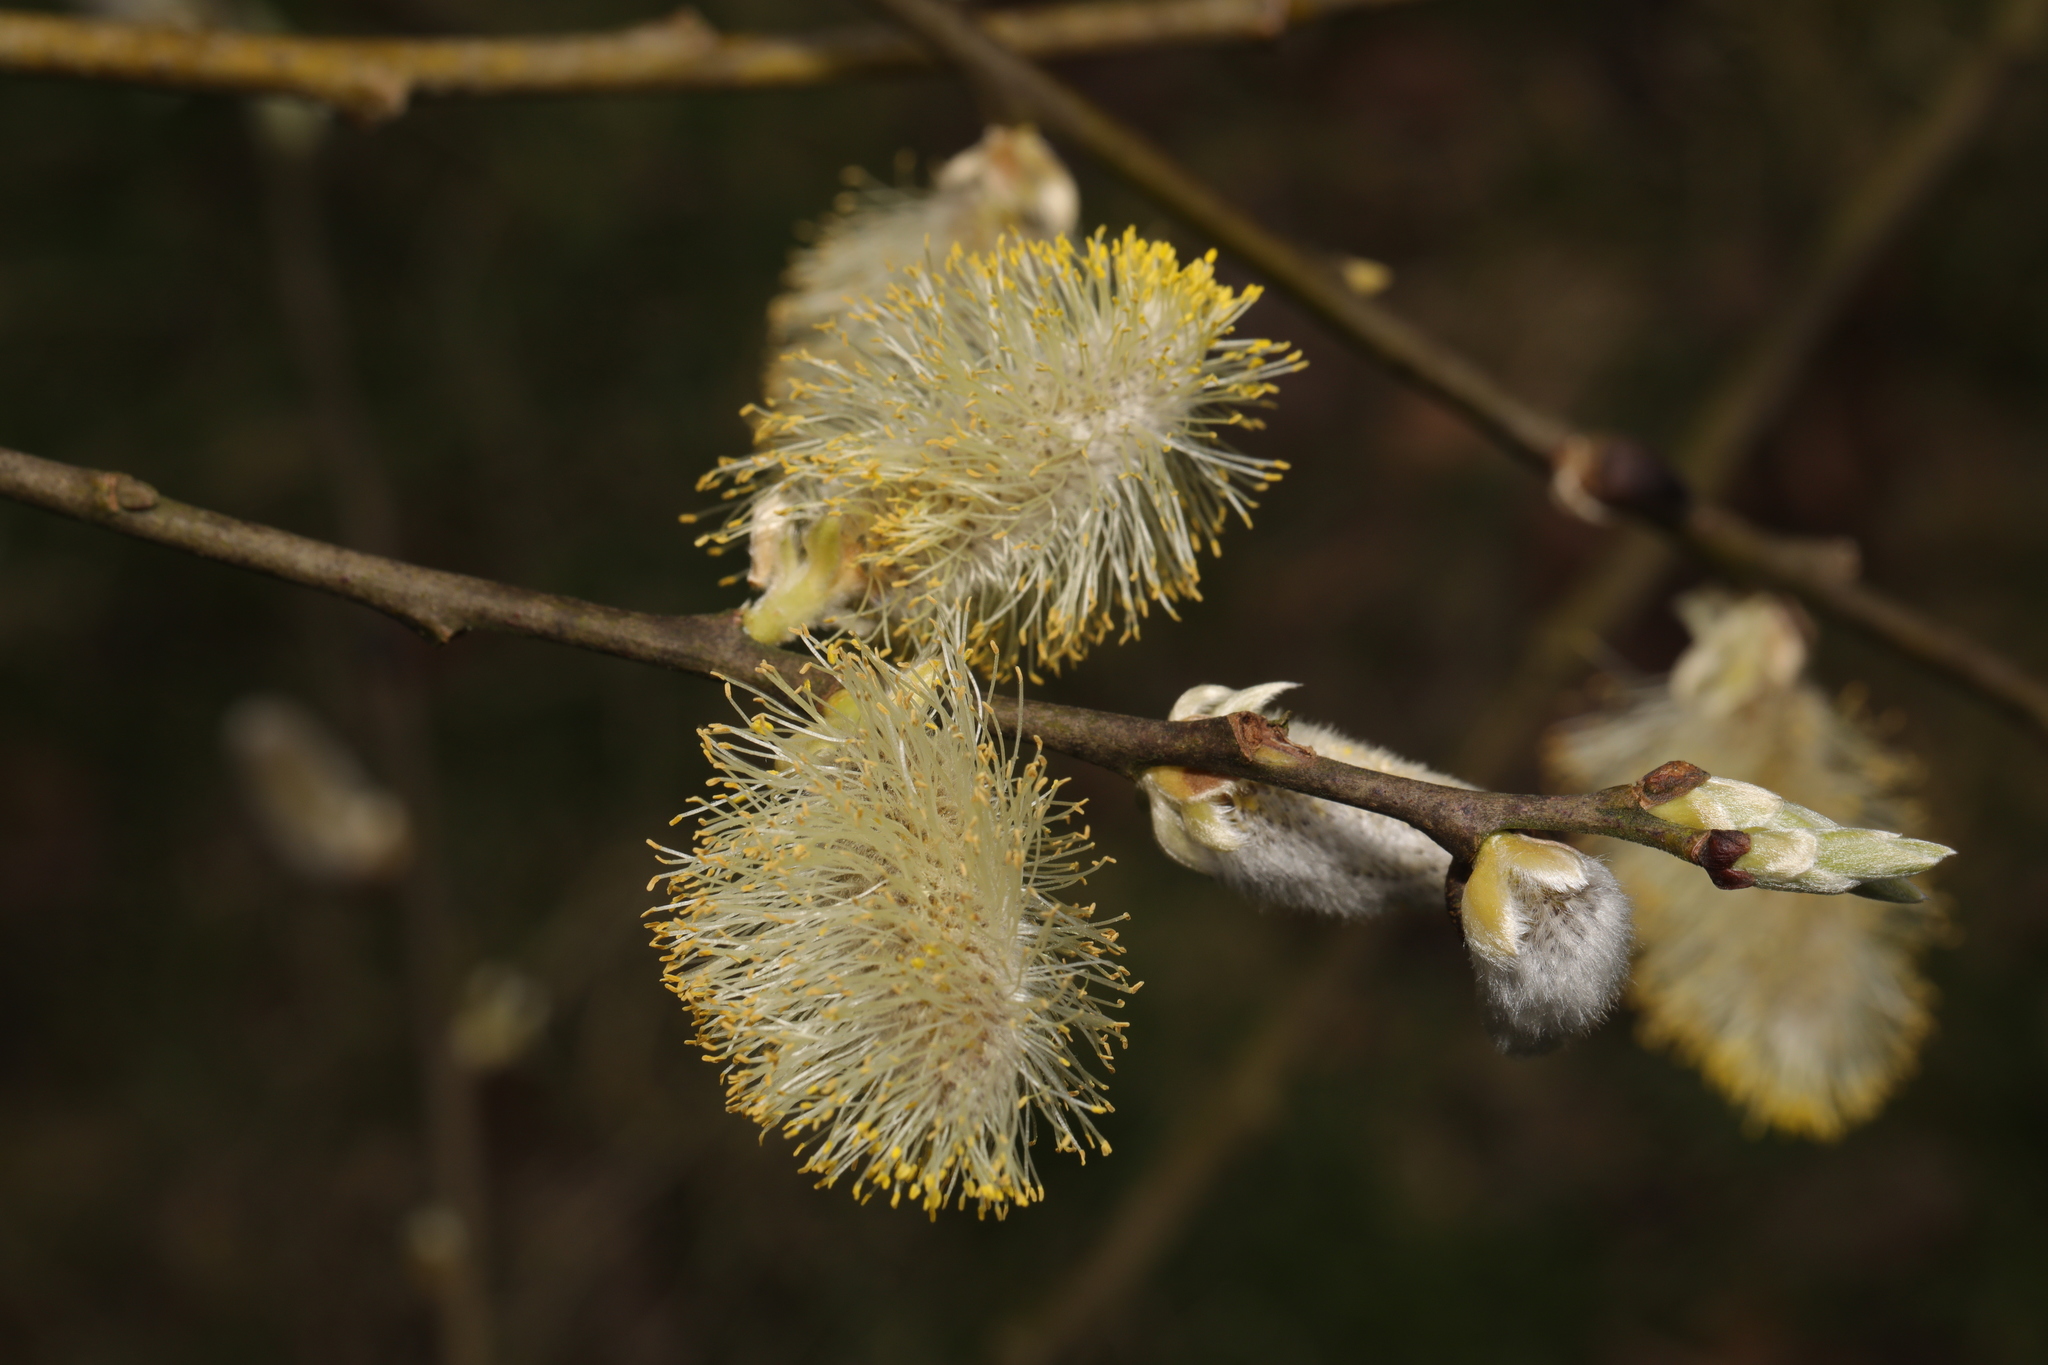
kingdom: Plantae
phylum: Tracheophyta
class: Magnoliopsida
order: Malpighiales
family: Salicaceae
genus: Salix
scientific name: Salix caprea
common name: Goat willow
